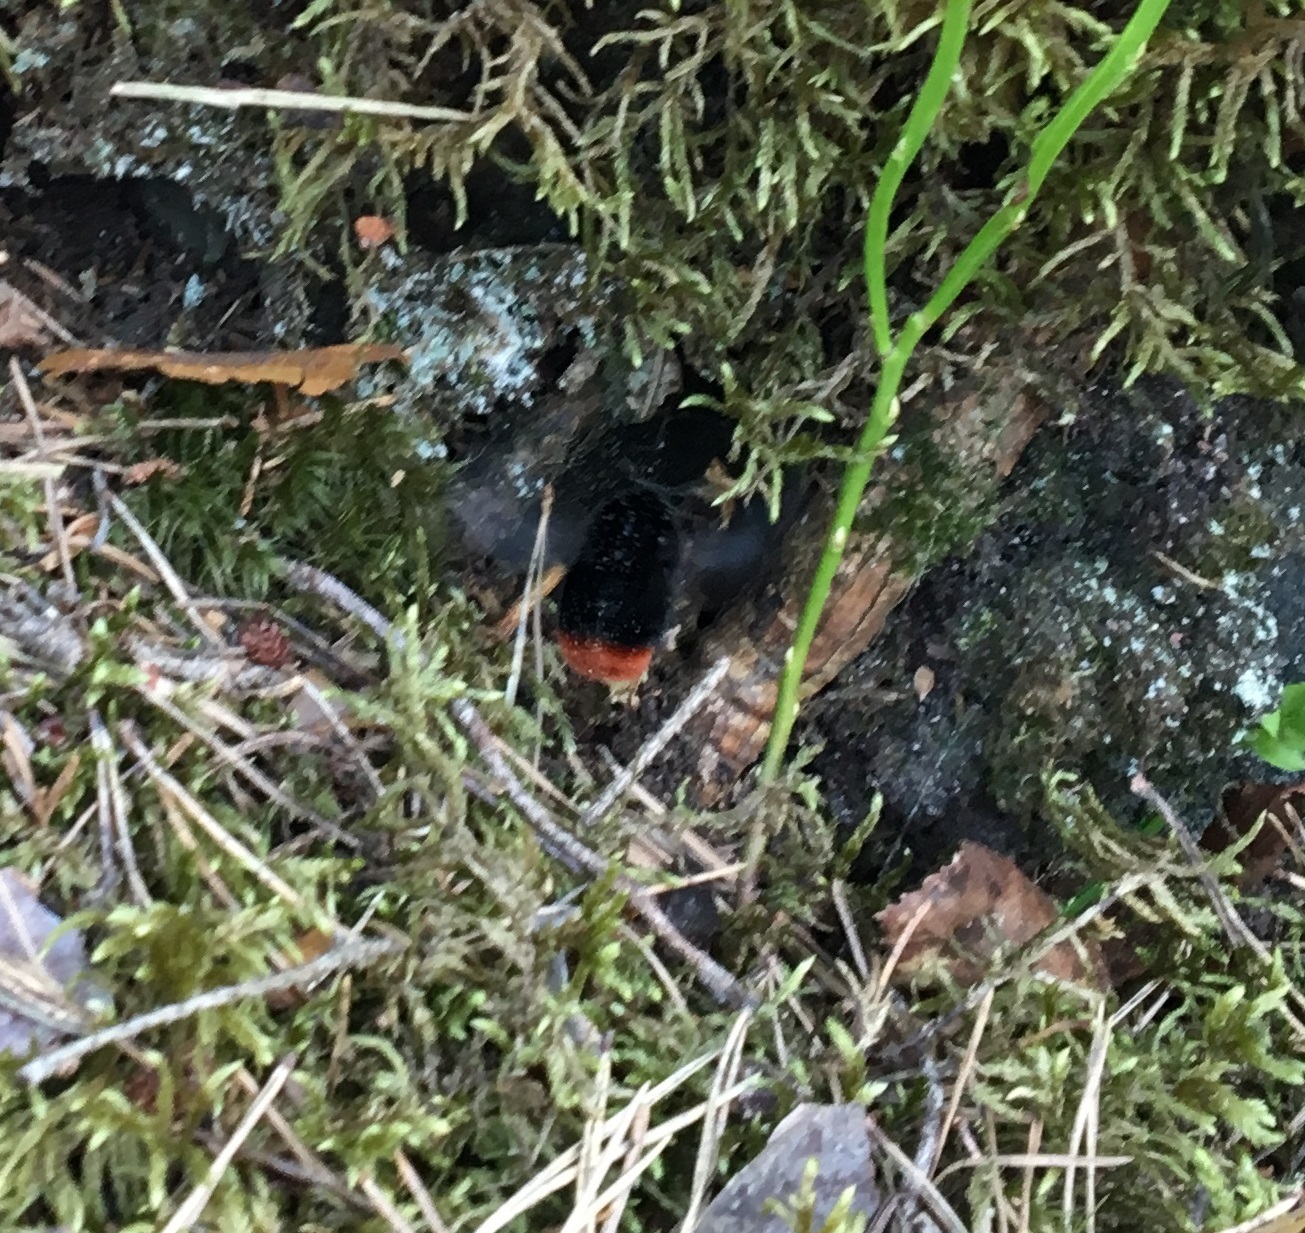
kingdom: Animalia
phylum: Arthropoda
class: Insecta
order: Hymenoptera
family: Apidae
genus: Bombus
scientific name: Bombus lapidarius
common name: Large red-tailed humble-bee
